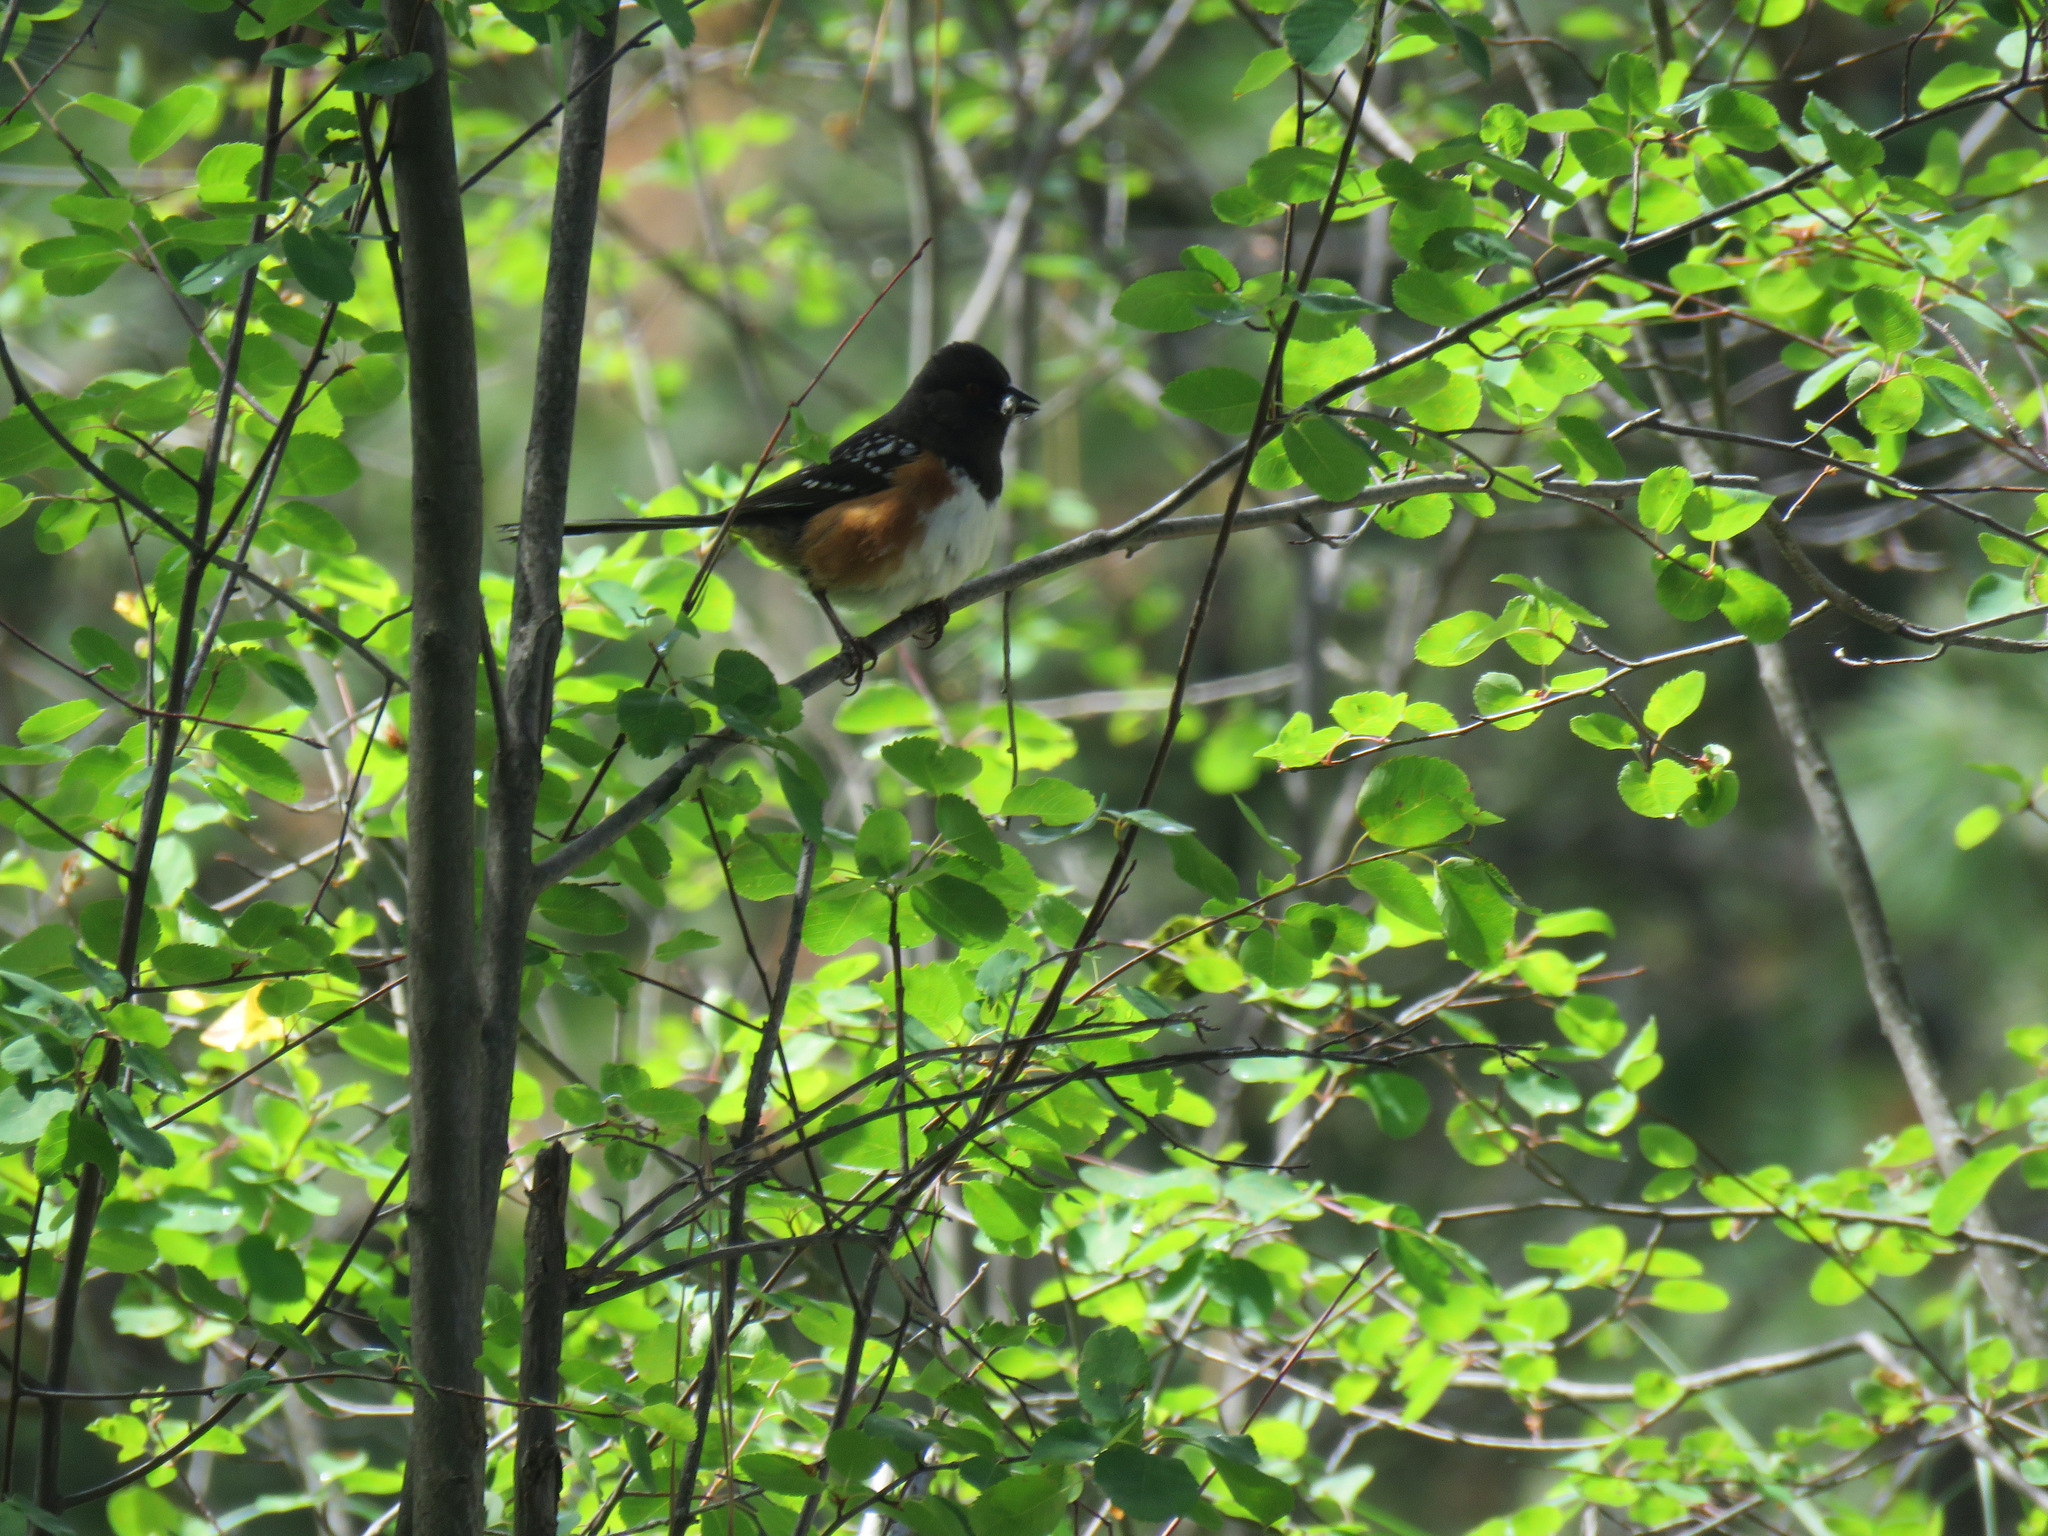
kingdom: Animalia
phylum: Chordata
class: Aves
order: Passeriformes
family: Passerellidae
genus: Pipilo
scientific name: Pipilo maculatus
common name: Spotted towhee
